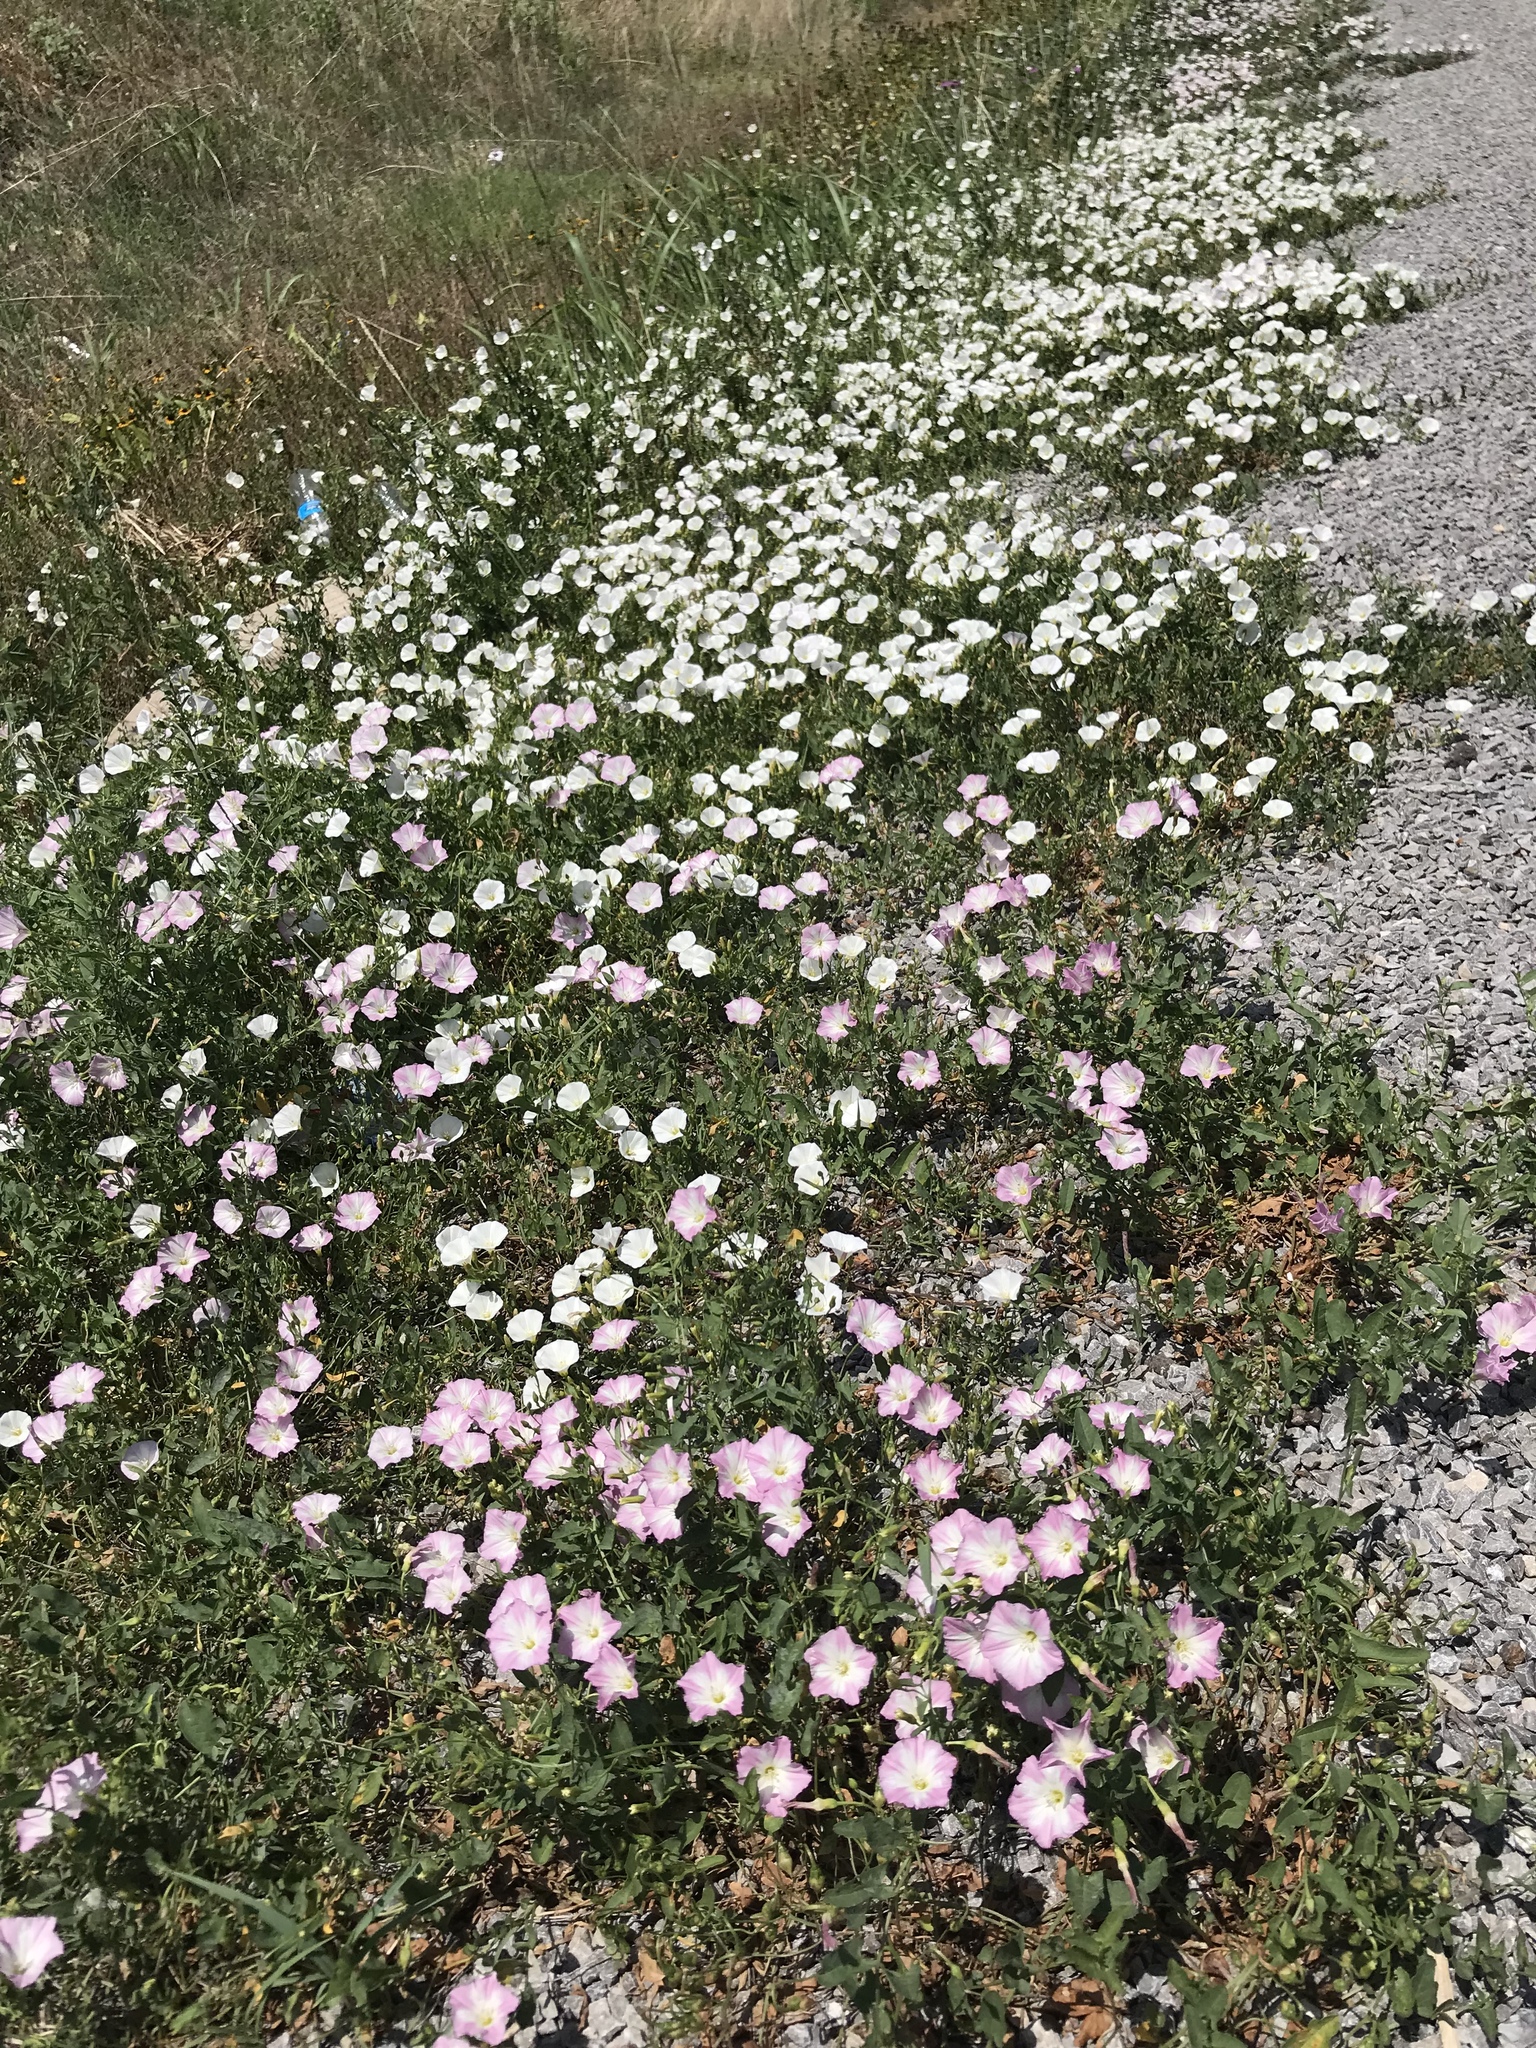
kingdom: Plantae
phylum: Tracheophyta
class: Magnoliopsida
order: Solanales
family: Convolvulaceae
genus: Convolvulus
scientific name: Convolvulus arvensis
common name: Field bindweed
